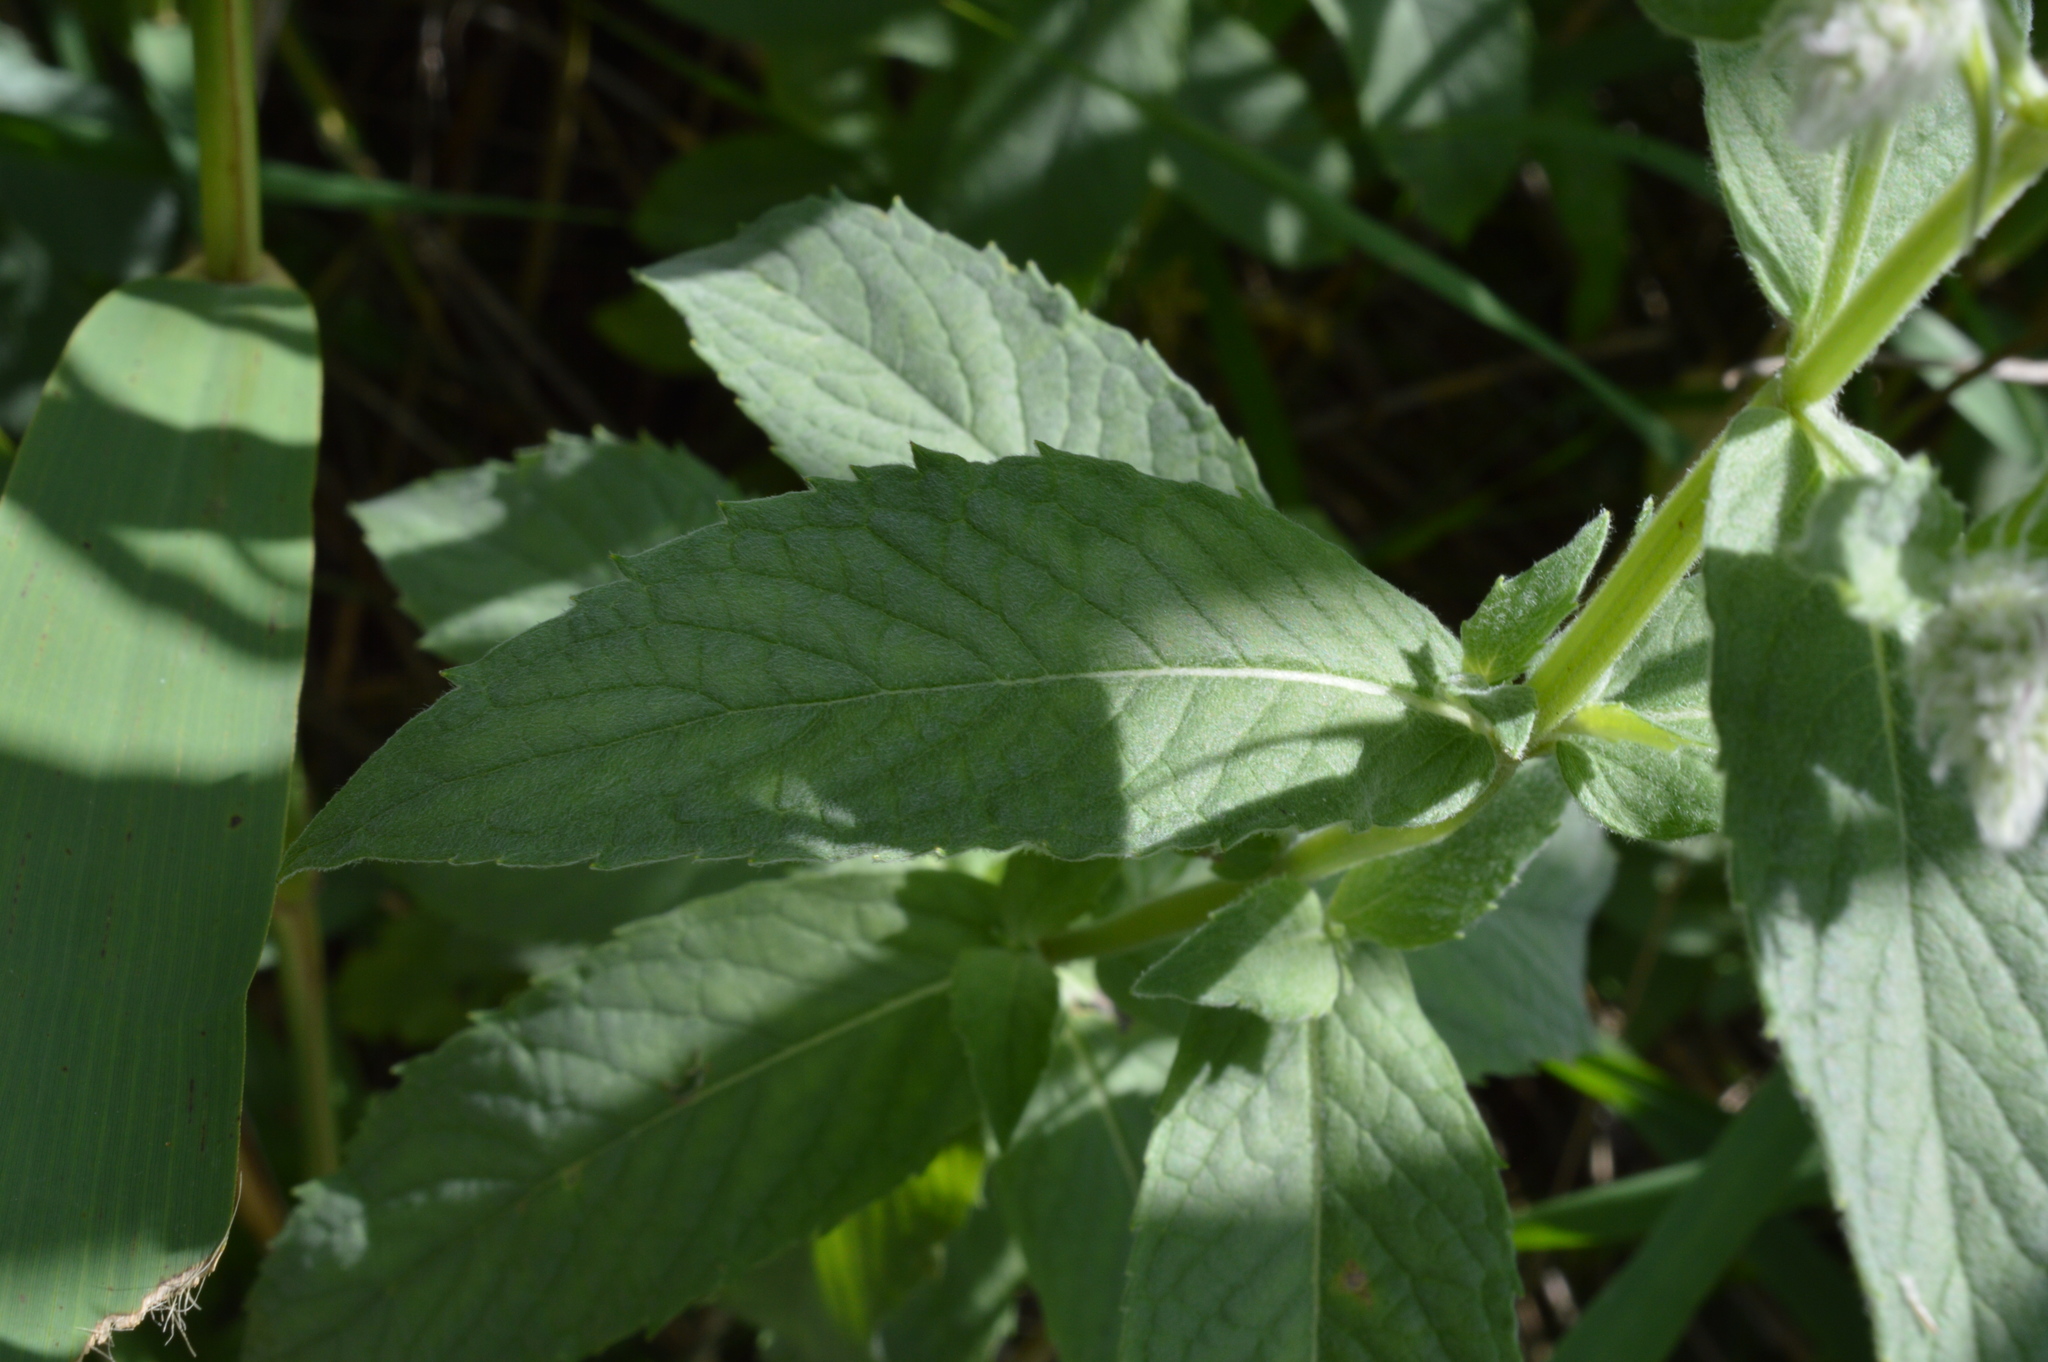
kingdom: Plantae
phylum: Tracheophyta
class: Magnoliopsida
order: Lamiales
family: Lamiaceae
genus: Mentha
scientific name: Mentha longifolia
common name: Horse mint
